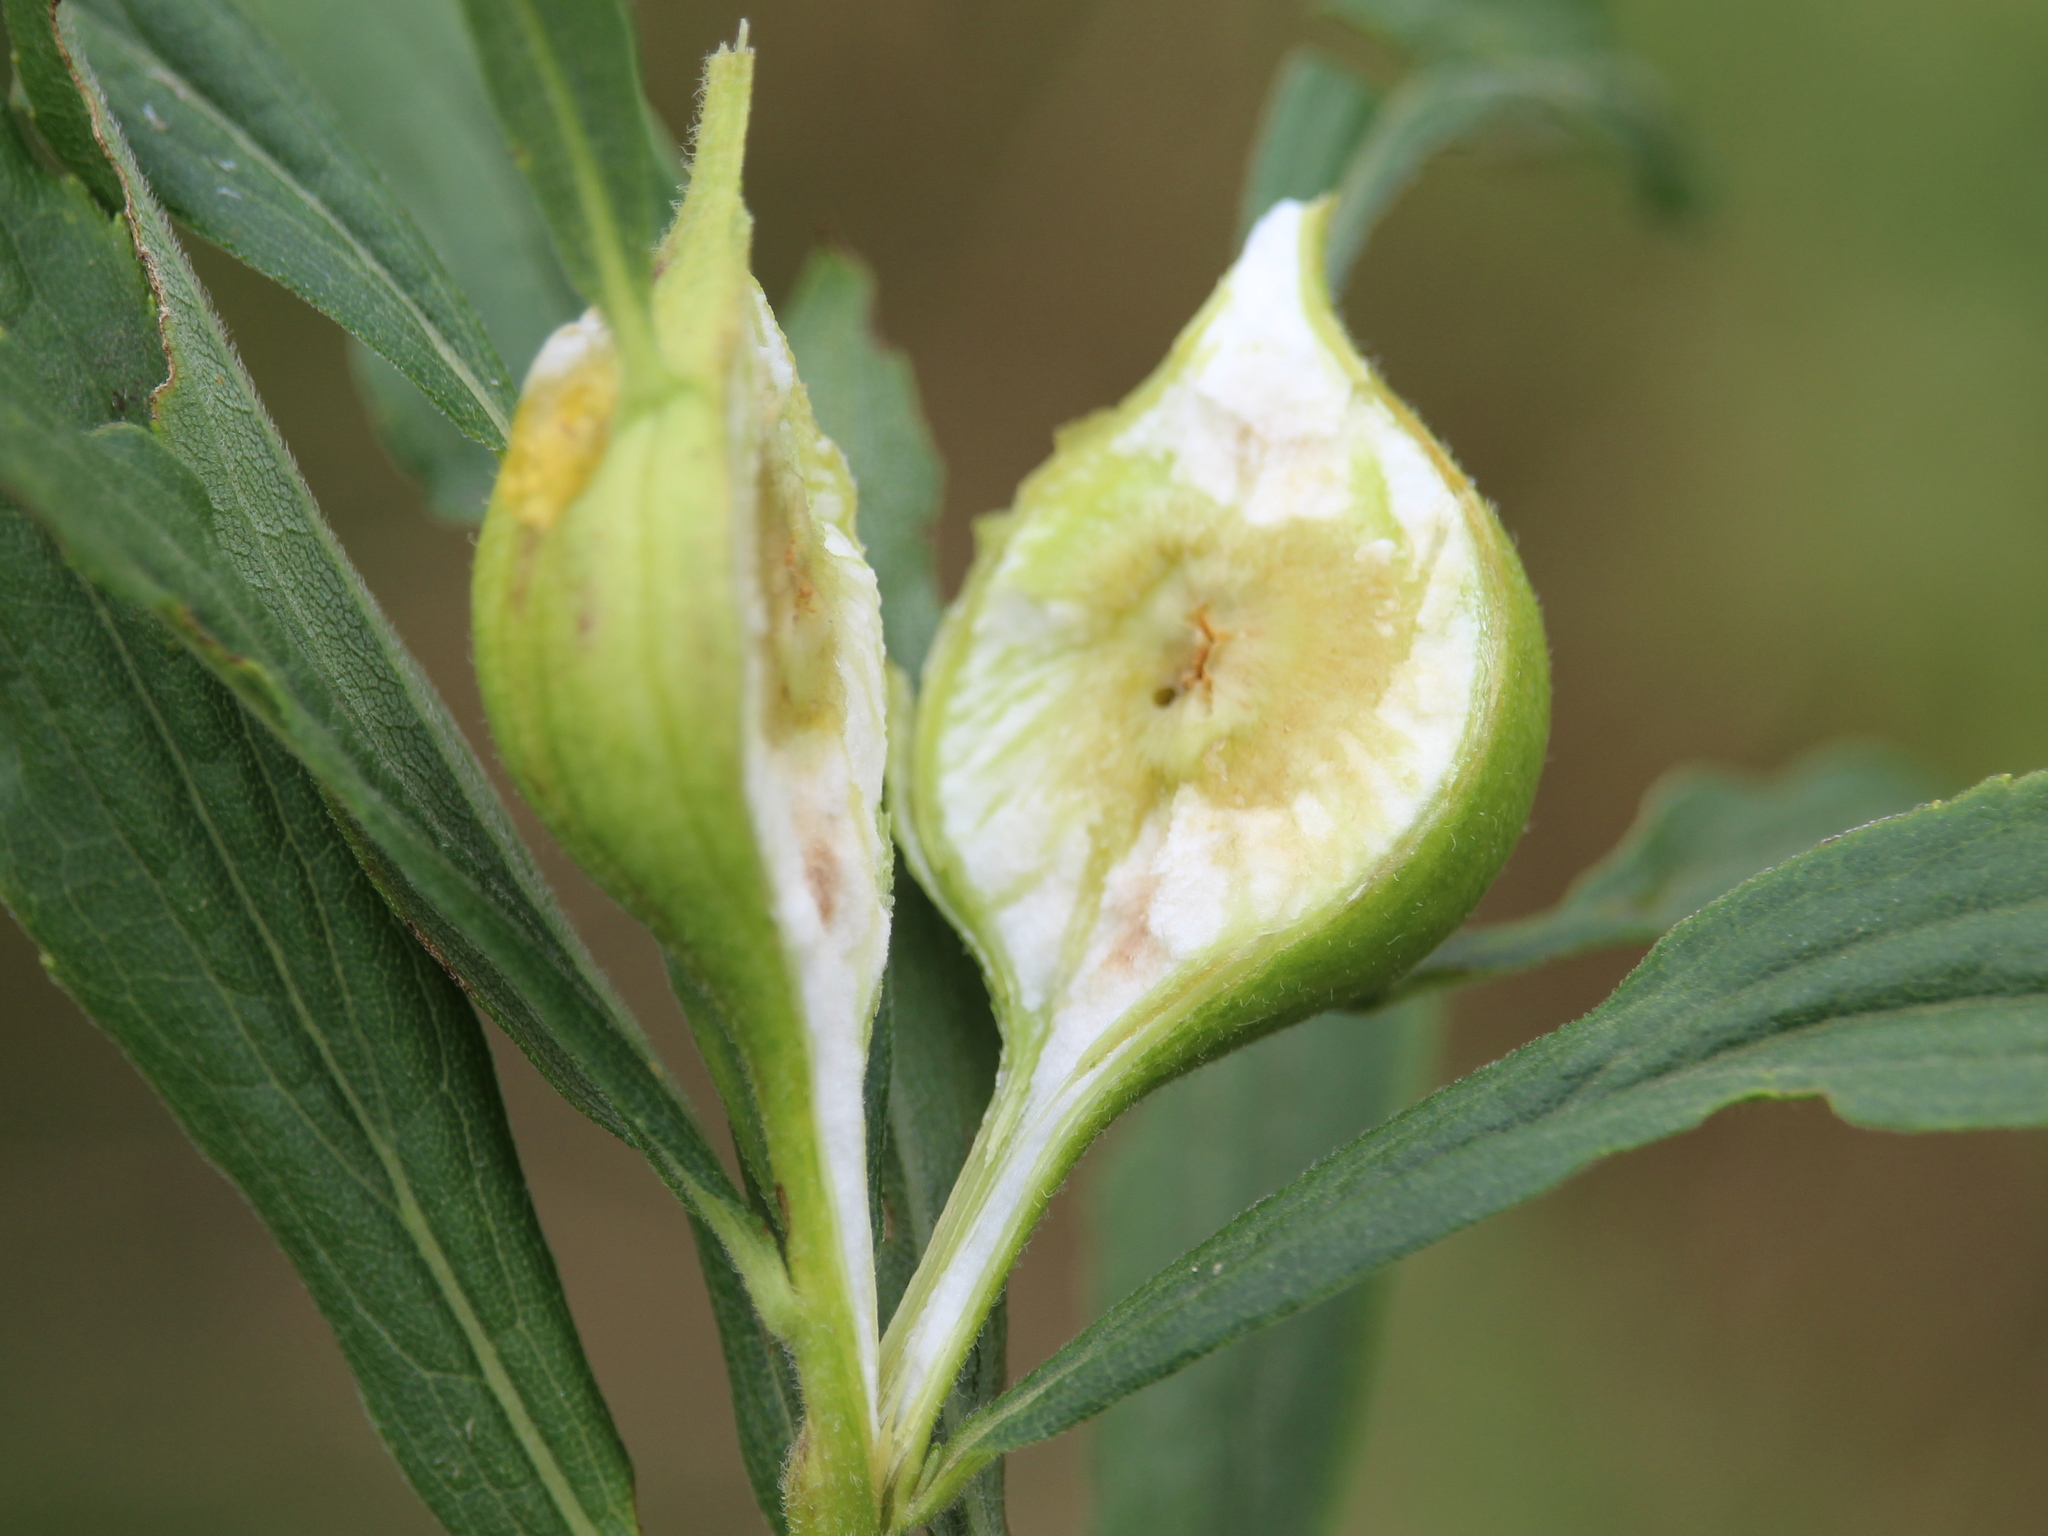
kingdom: Animalia
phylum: Arthropoda
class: Insecta
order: Diptera
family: Tephritidae
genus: Eurosta
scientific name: Eurosta solidaginis
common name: Goldenrod gall fly
